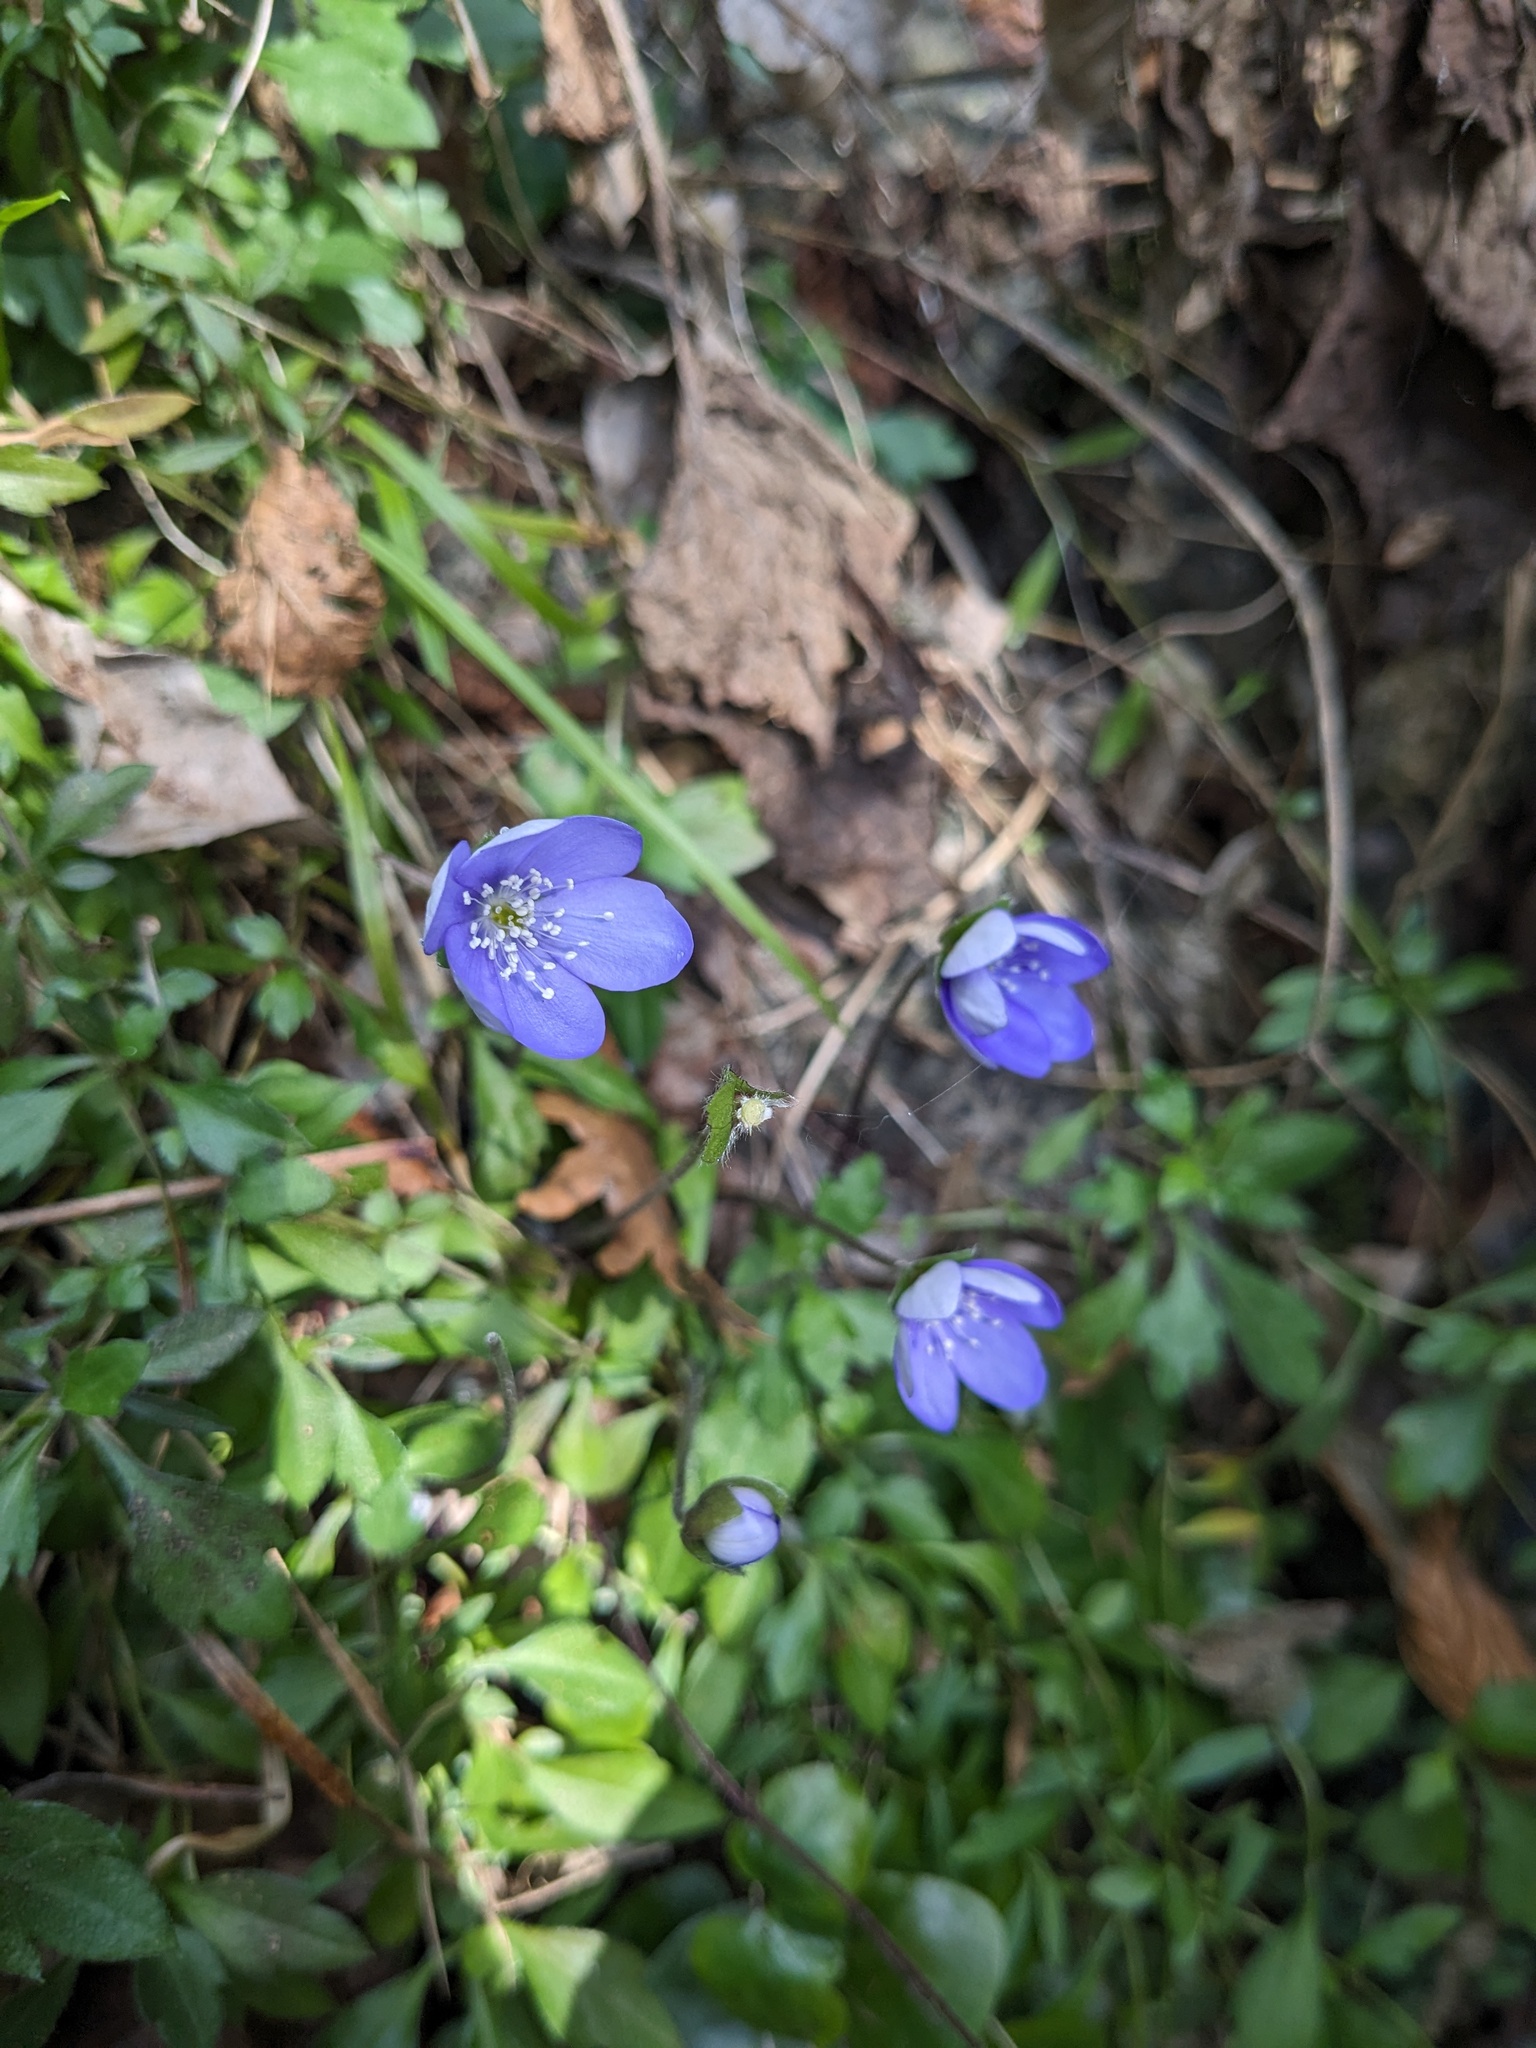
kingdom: Plantae
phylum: Tracheophyta
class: Magnoliopsida
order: Ranunculales
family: Ranunculaceae
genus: Hepatica
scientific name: Hepatica nobilis
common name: Liverleaf
